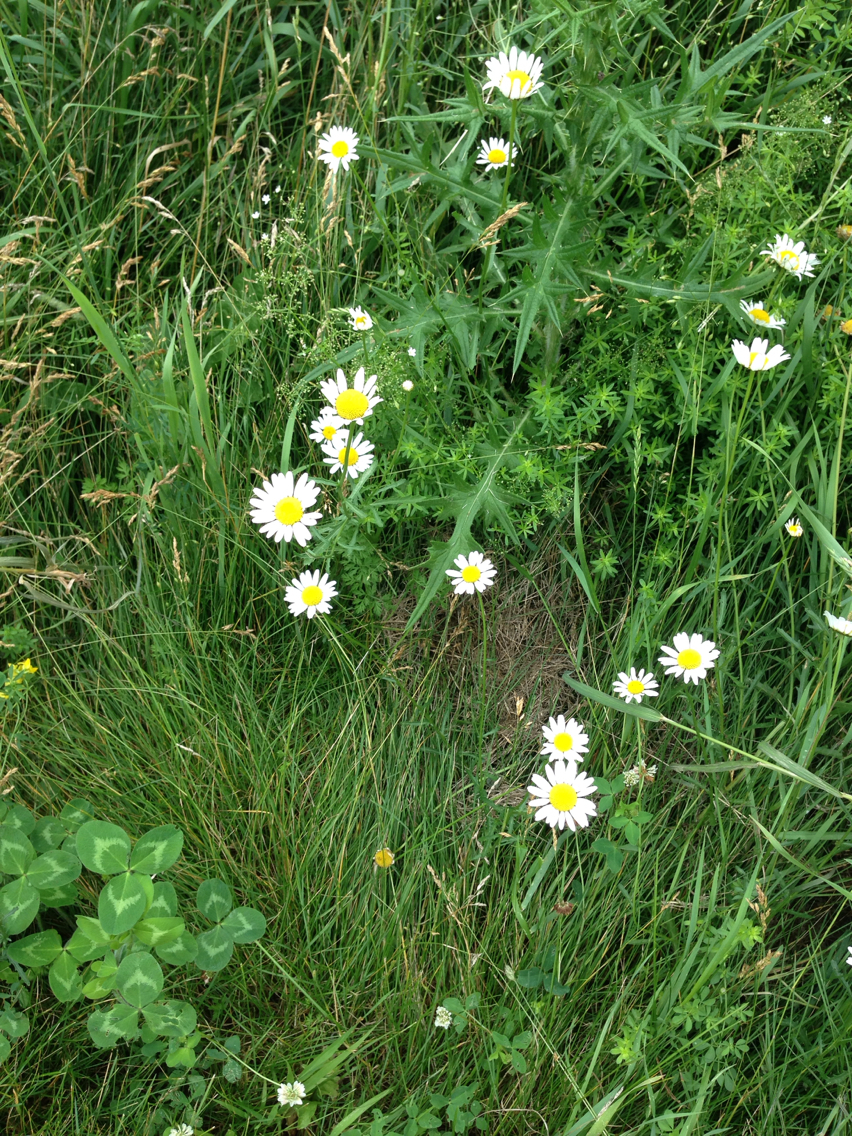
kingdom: Plantae
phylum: Tracheophyta
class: Magnoliopsida
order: Asterales
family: Asteraceae
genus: Leucanthemum
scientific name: Leucanthemum vulgare
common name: Oxeye daisy
